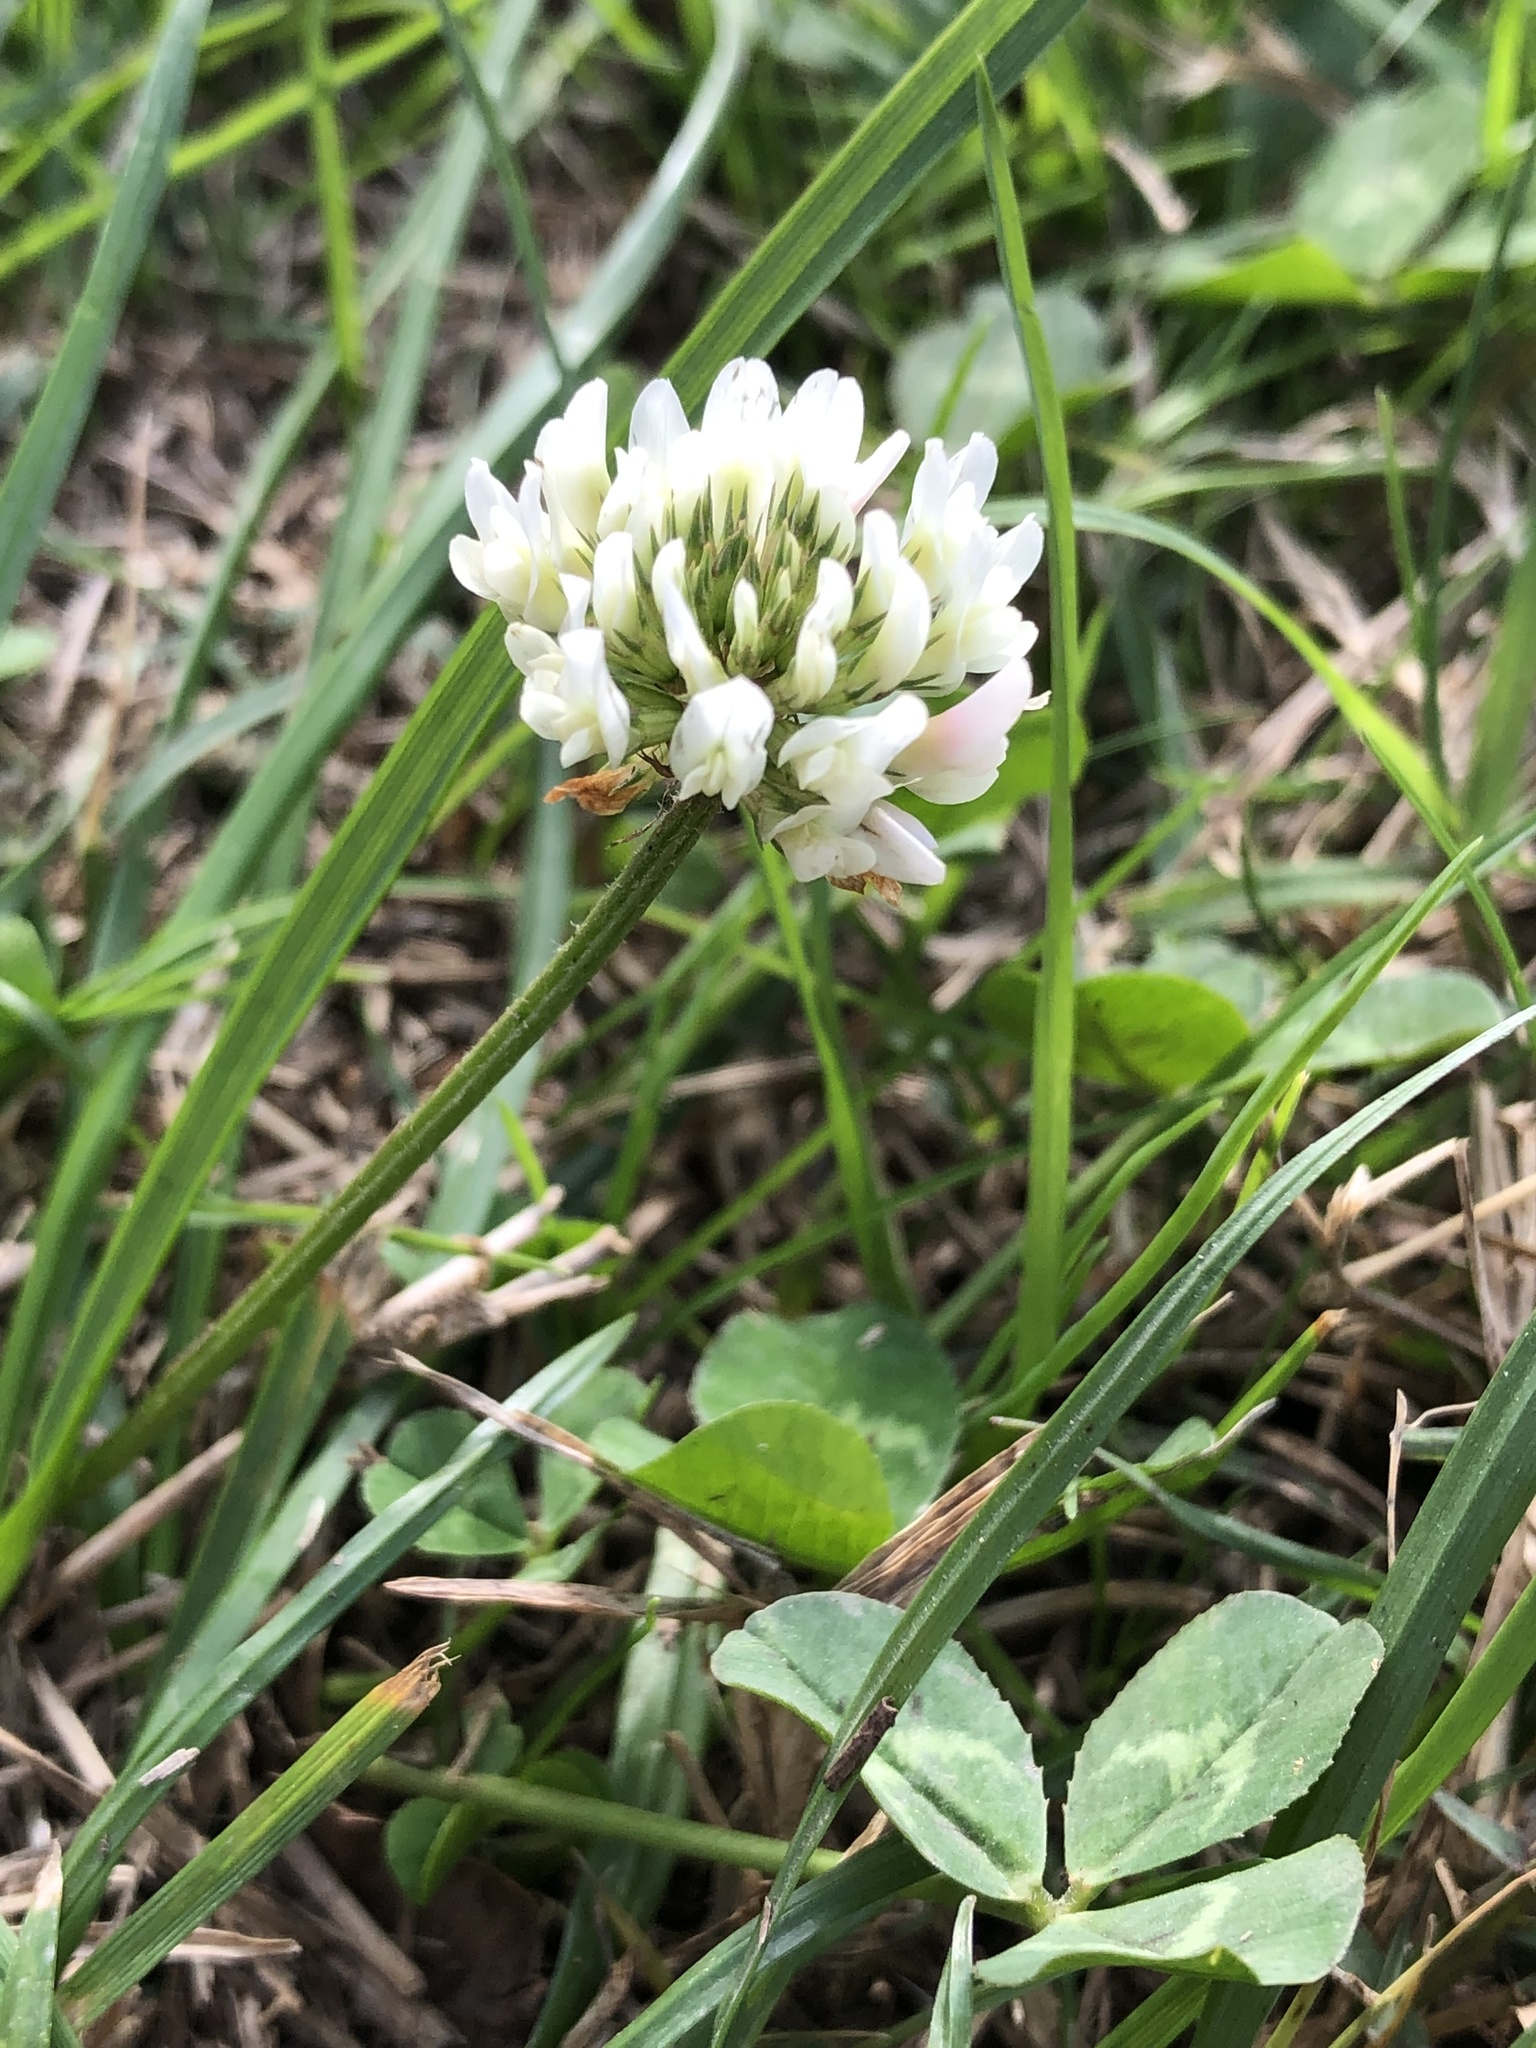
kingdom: Plantae
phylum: Tracheophyta
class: Magnoliopsida
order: Fabales
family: Fabaceae
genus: Trifolium
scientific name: Trifolium repens
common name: White clover
